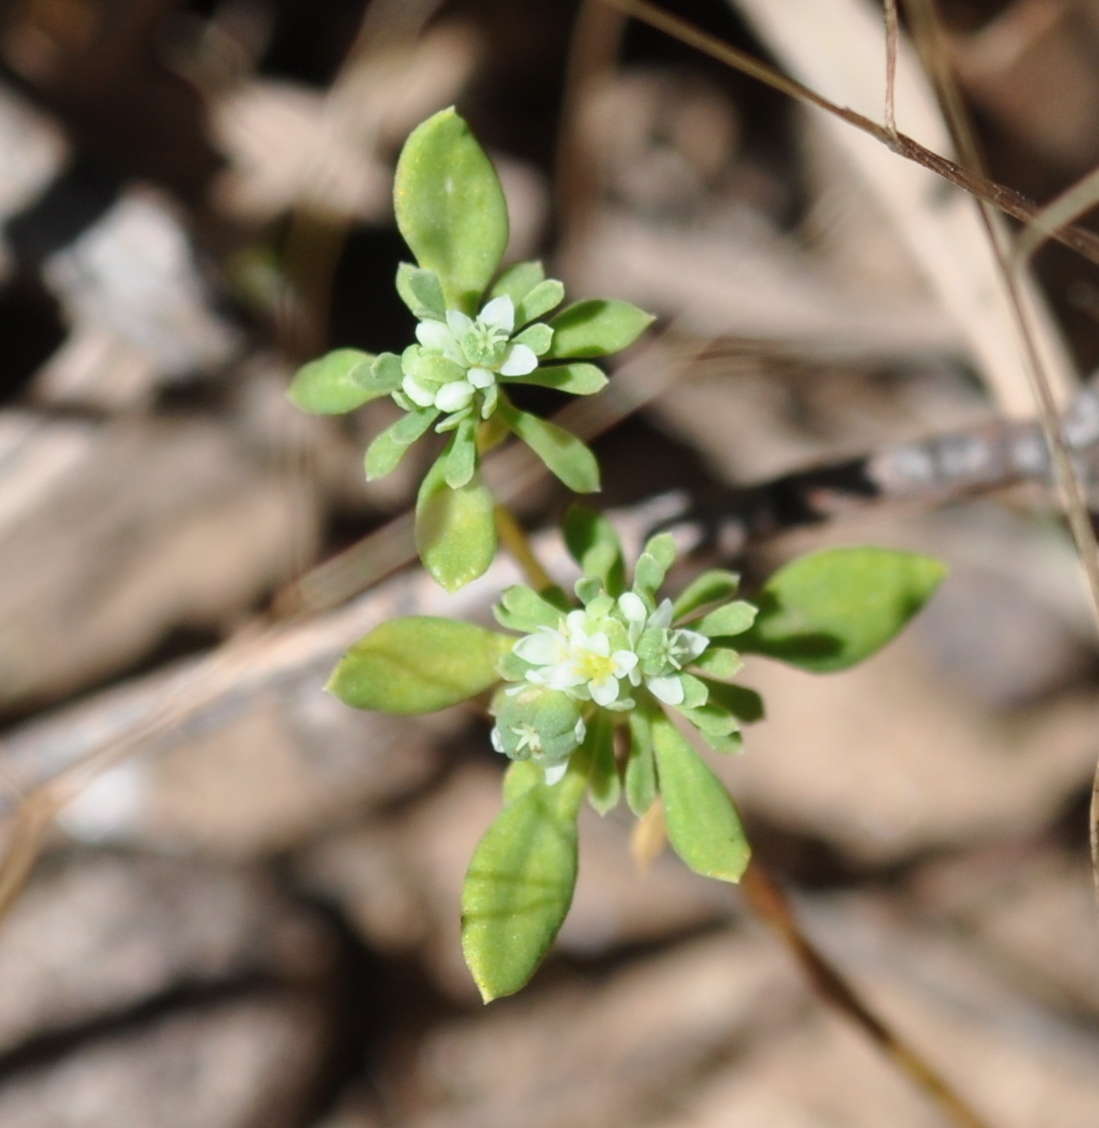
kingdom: Plantae
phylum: Tracheophyta
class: Magnoliopsida
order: Malpighiales
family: Phyllanthaceae
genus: Poranthera
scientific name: Poranthera microphylla
